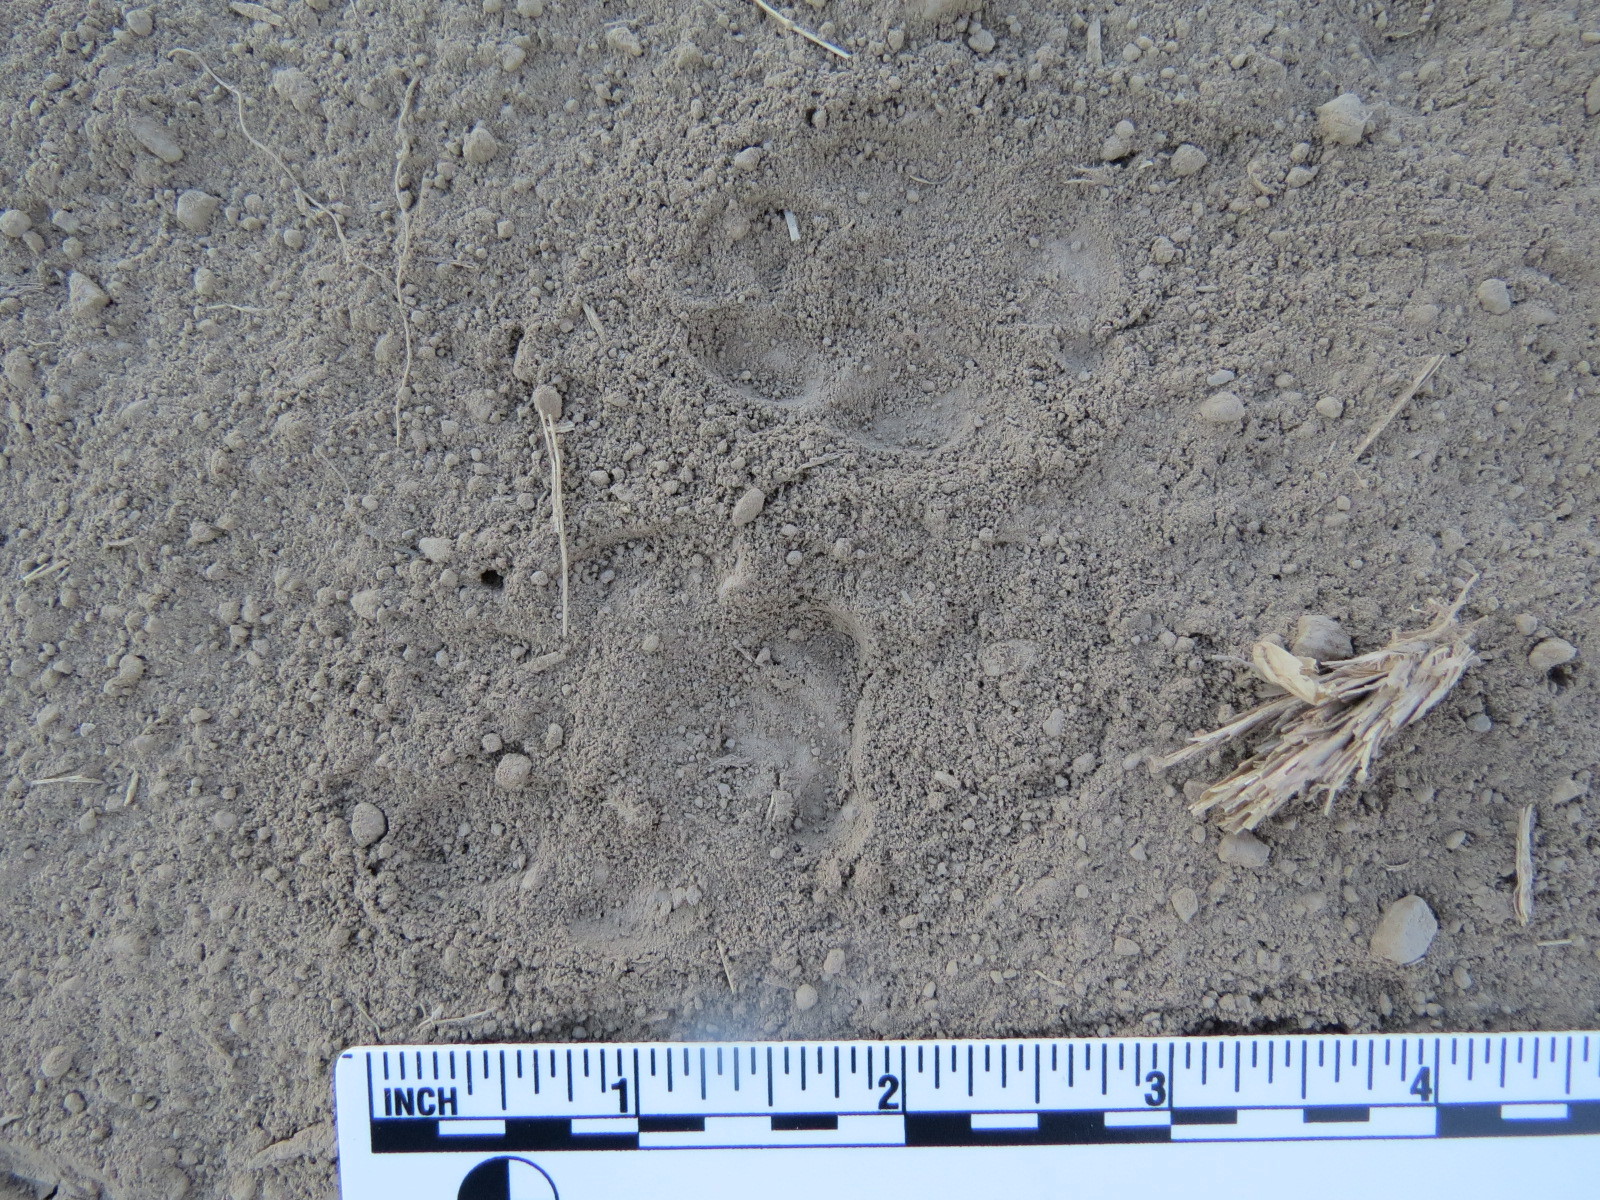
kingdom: Animalia
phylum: Chordata
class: Mammalia
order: Carnivora
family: Canidae
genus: Urocyon
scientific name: Urocyon cinereoargenteus
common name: Gray fox
